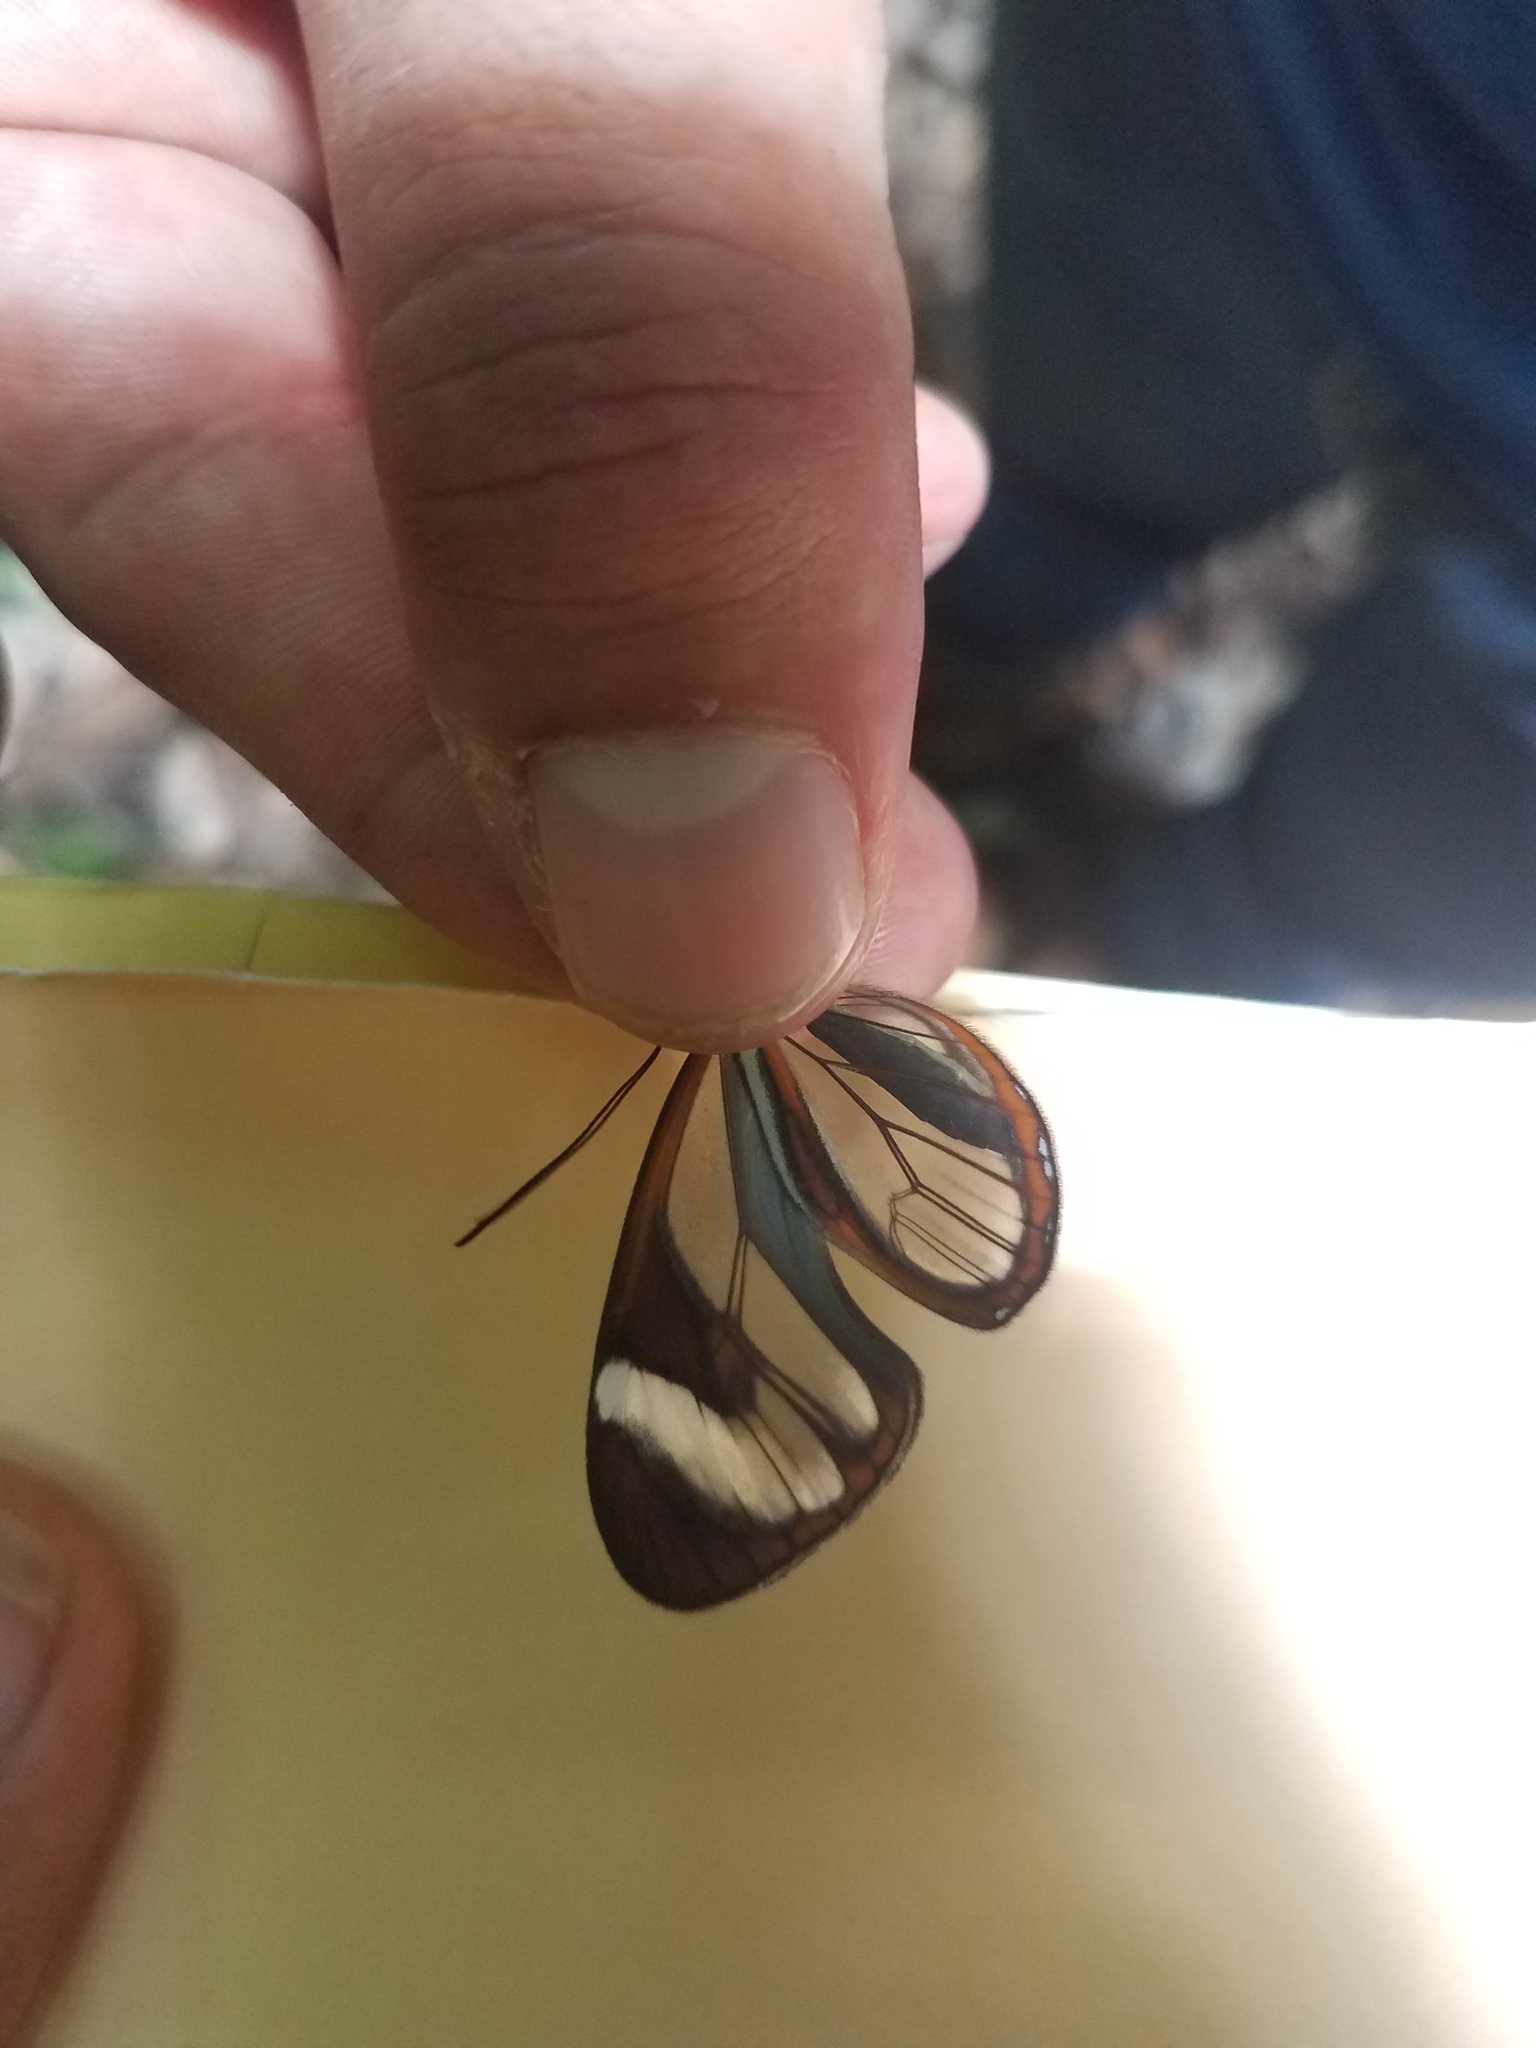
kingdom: Animalia
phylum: Arthropoda
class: Insecta
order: Lepidoptera
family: Nymphalidae
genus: Ithomia
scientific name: Ithomia patilla
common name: Patilla clearwing
